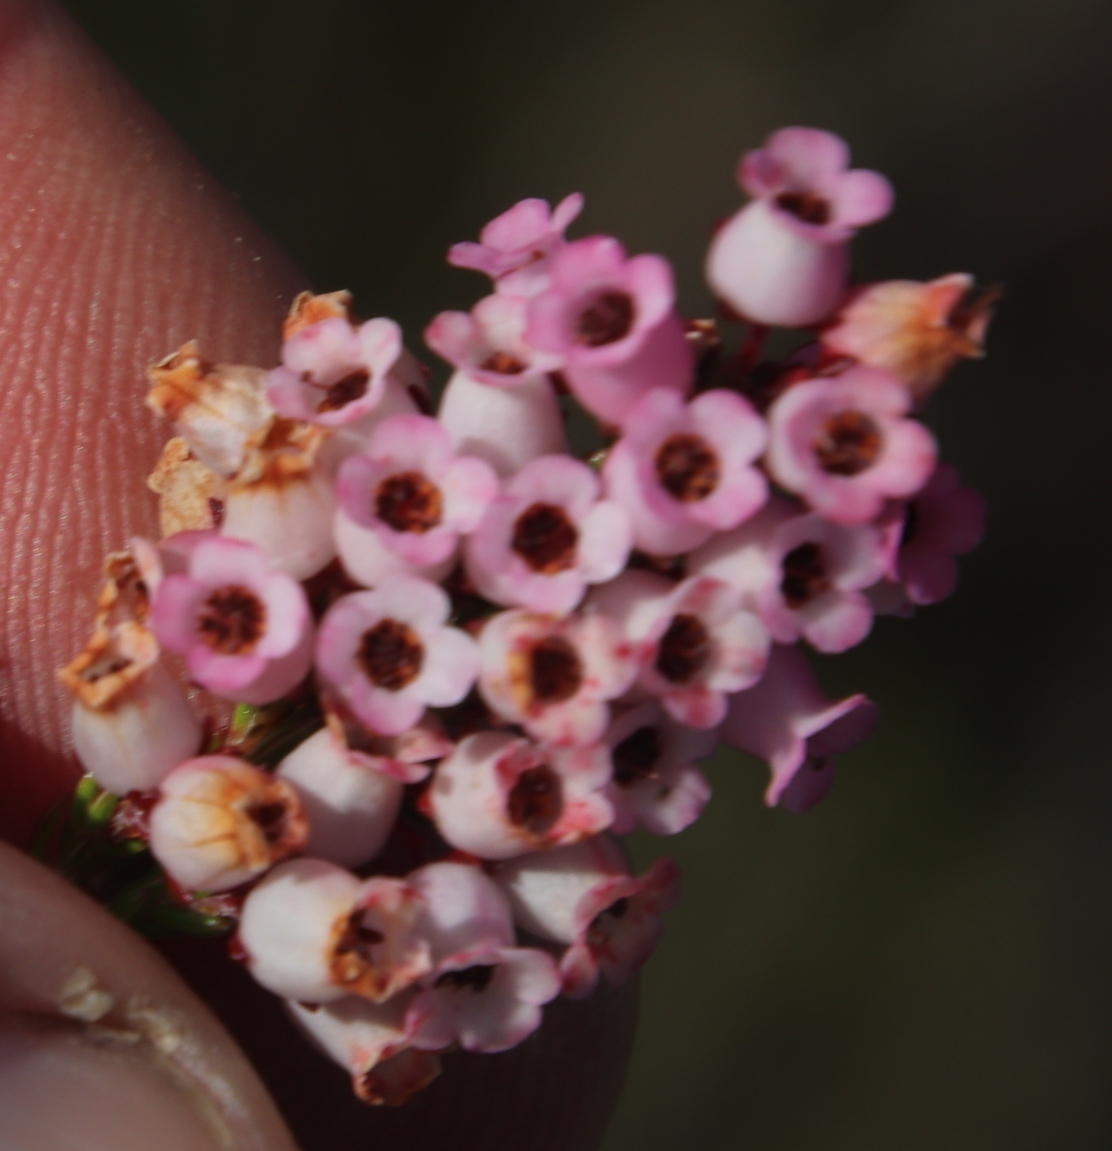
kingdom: Plantae
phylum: Tracheophyta
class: Magnoliopsida
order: Ericales
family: Ericaceae
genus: Erica
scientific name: Erica tenella
